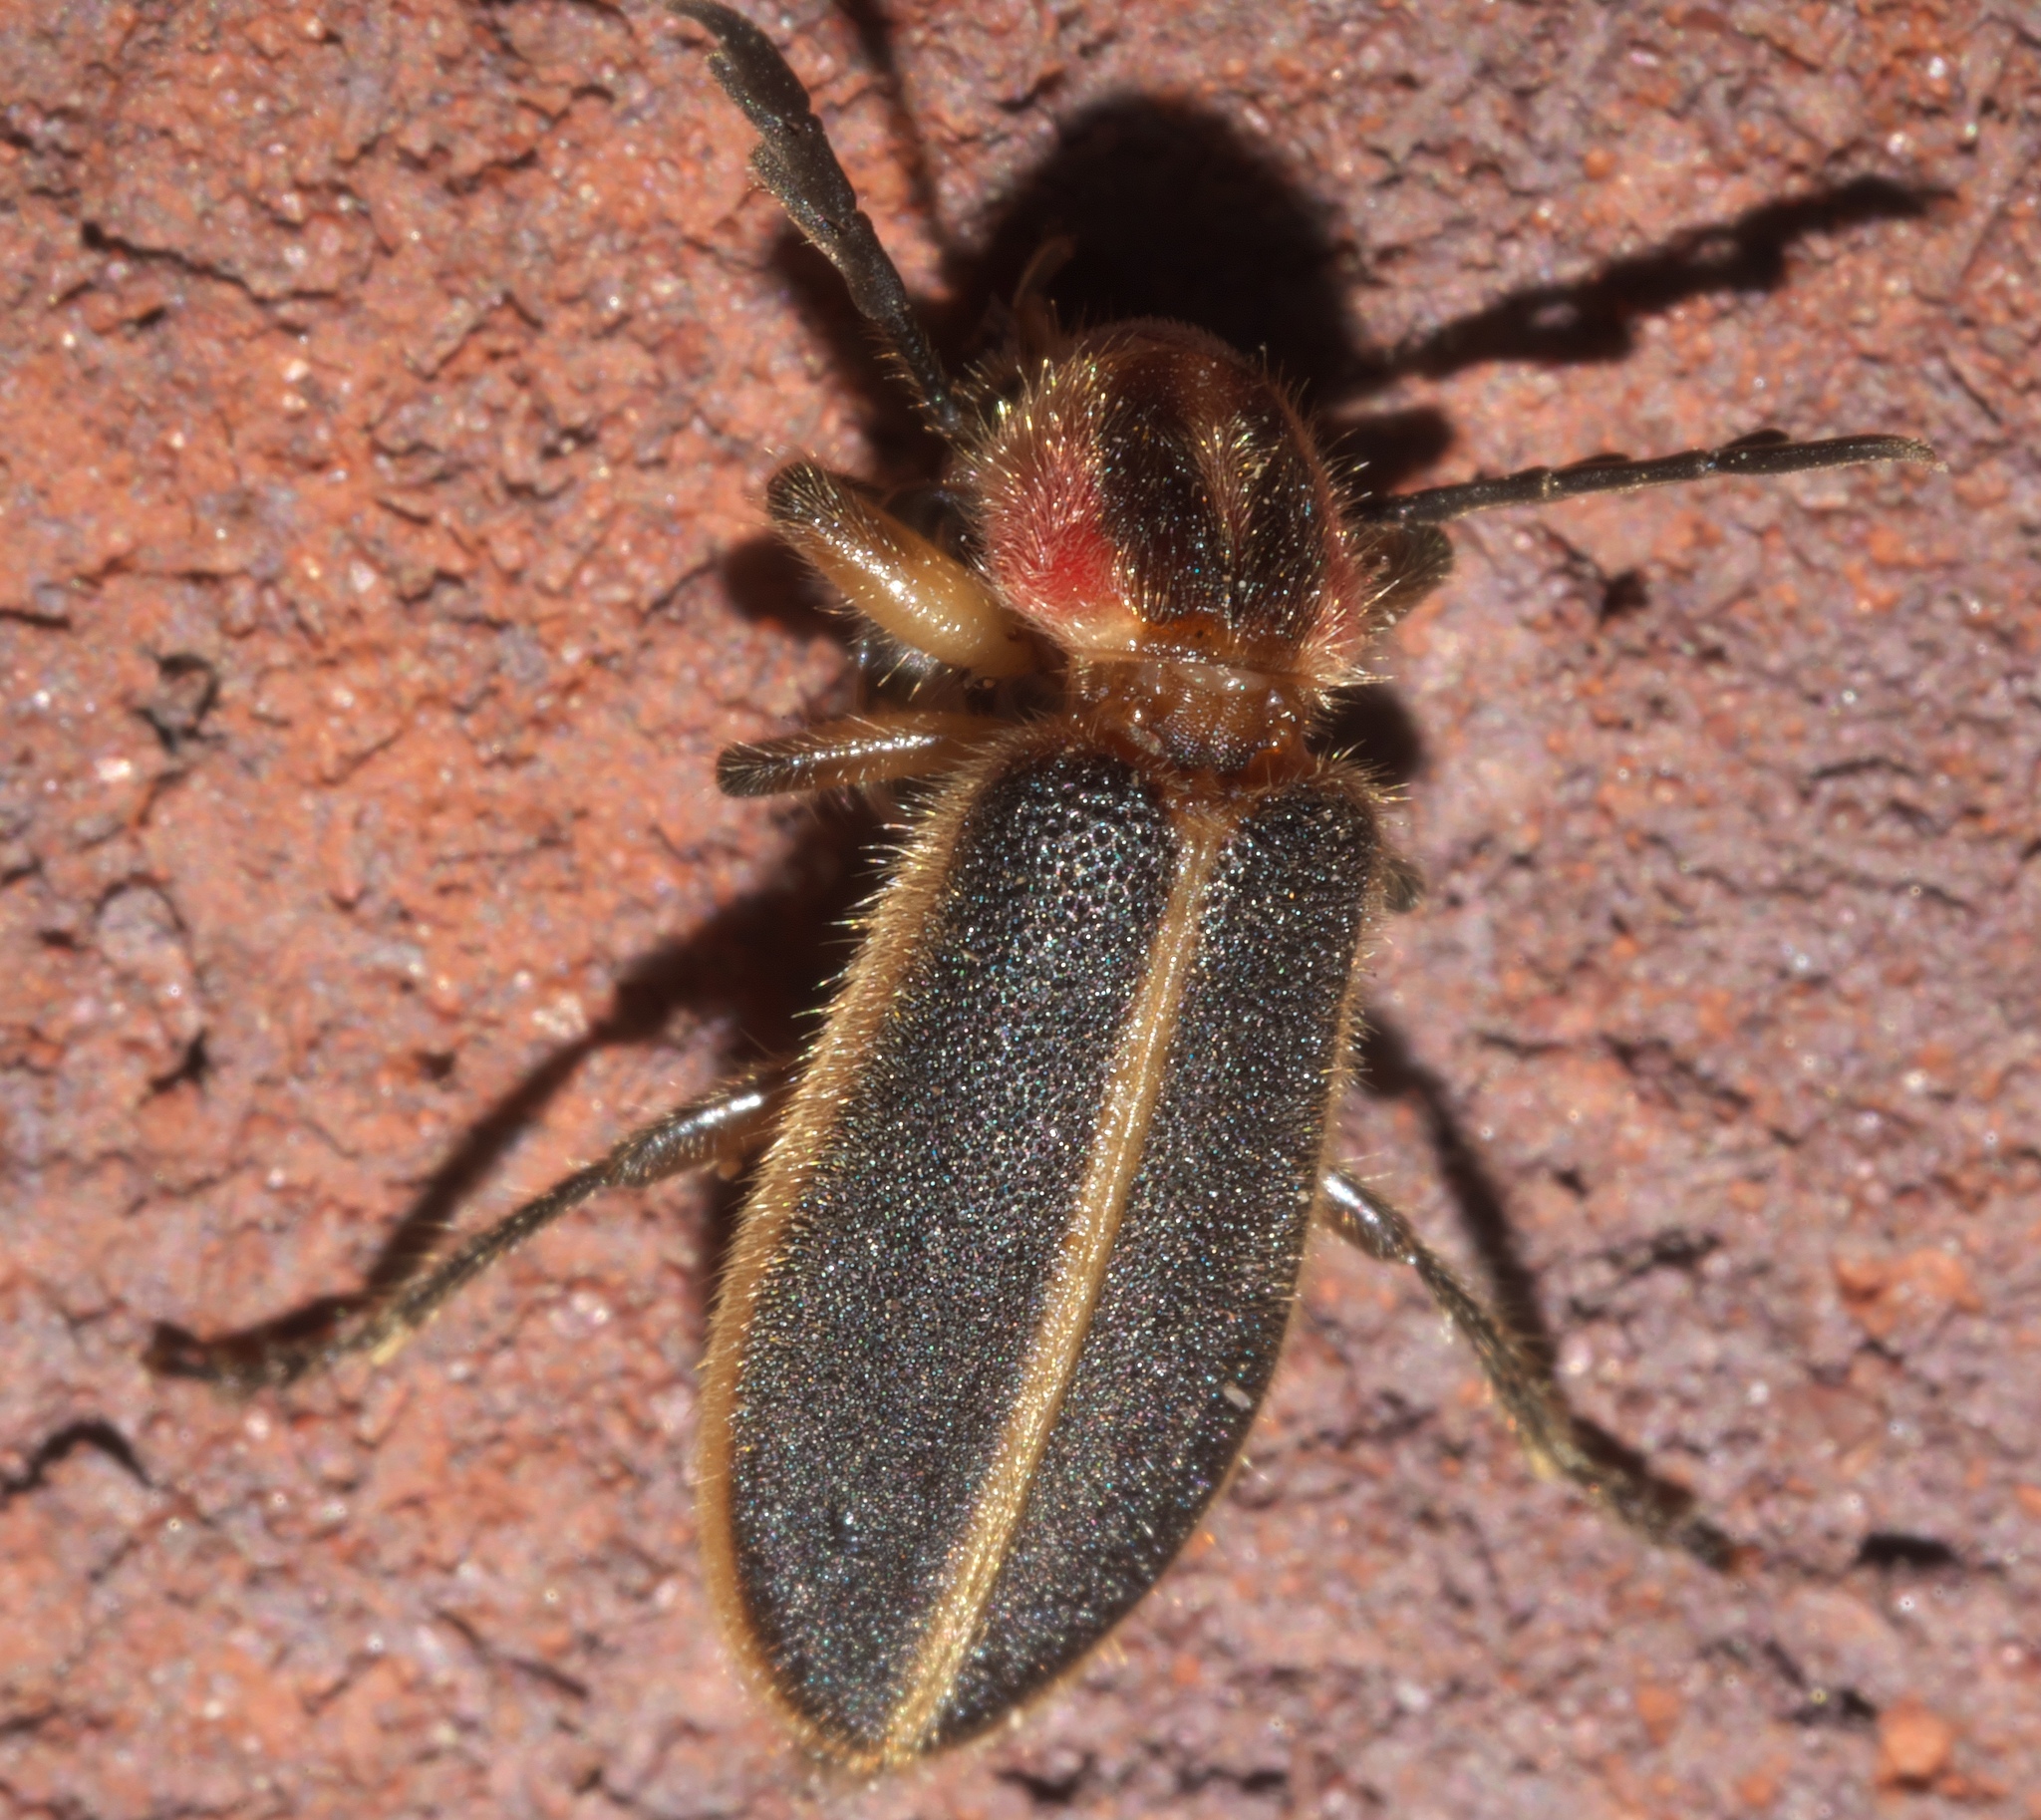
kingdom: Animalia
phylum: Arthropoda
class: Insecta
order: Coleoptera
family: Cleridae
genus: Chariessa
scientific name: Chariessa pilosa
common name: Pilose checkered beetle
